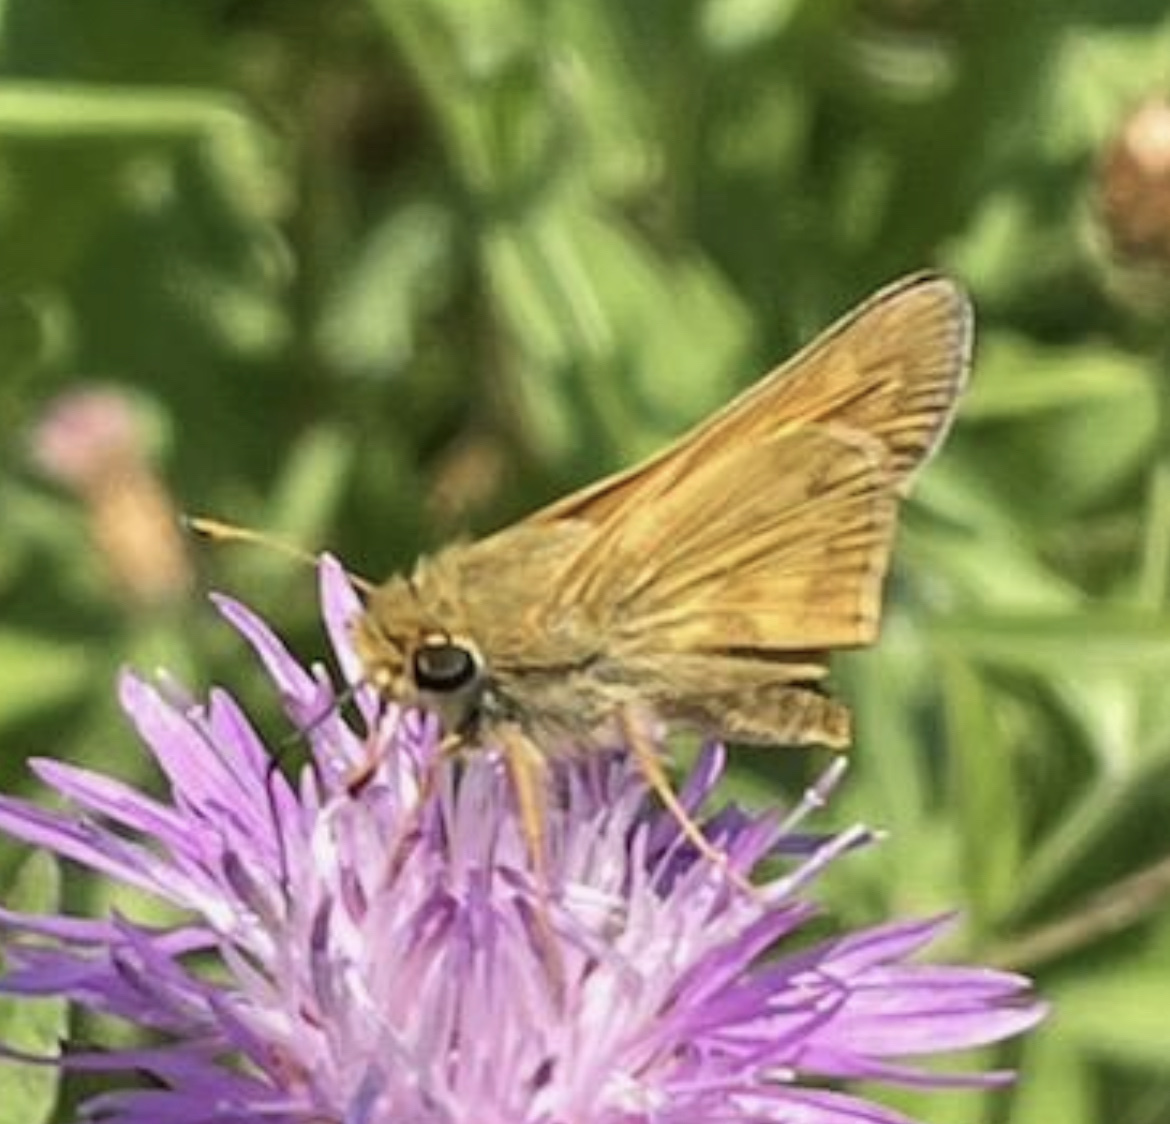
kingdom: Animalia
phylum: Arthropoda
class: Insecta
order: Lepidoptera
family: Hesperiidae
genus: Atalopedes
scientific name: Atalopedes
